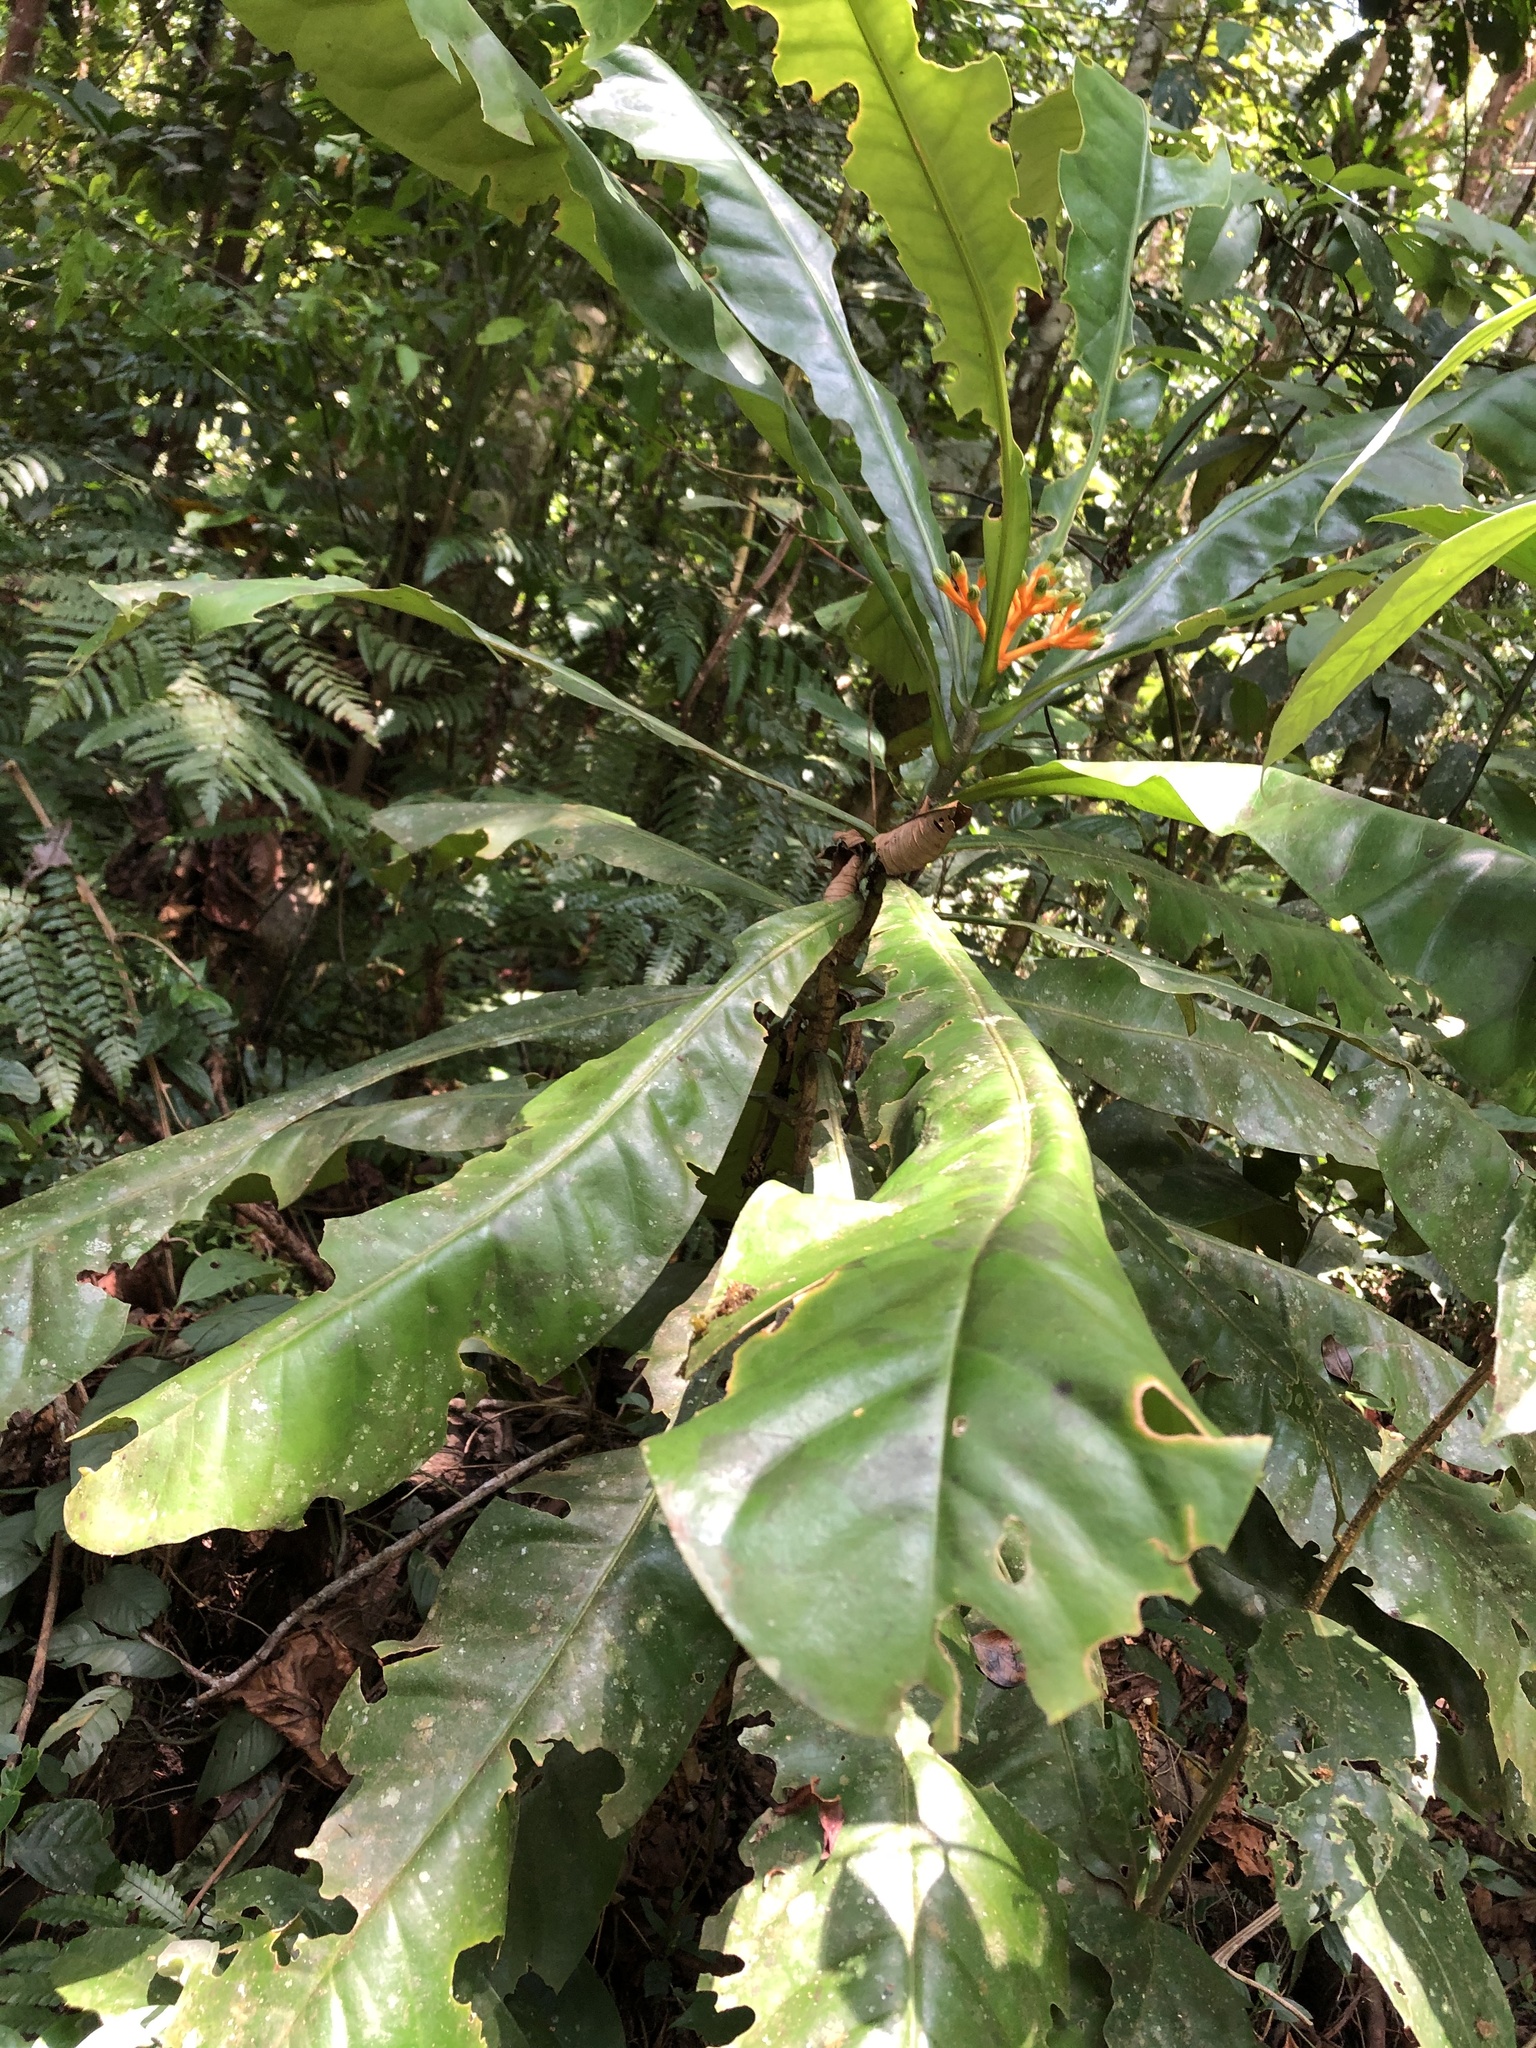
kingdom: Plantae
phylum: Tracheophyta
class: Magnoliopsida
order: Gentianales
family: Gentianaceae
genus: Potalia
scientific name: Potalia resinifera
